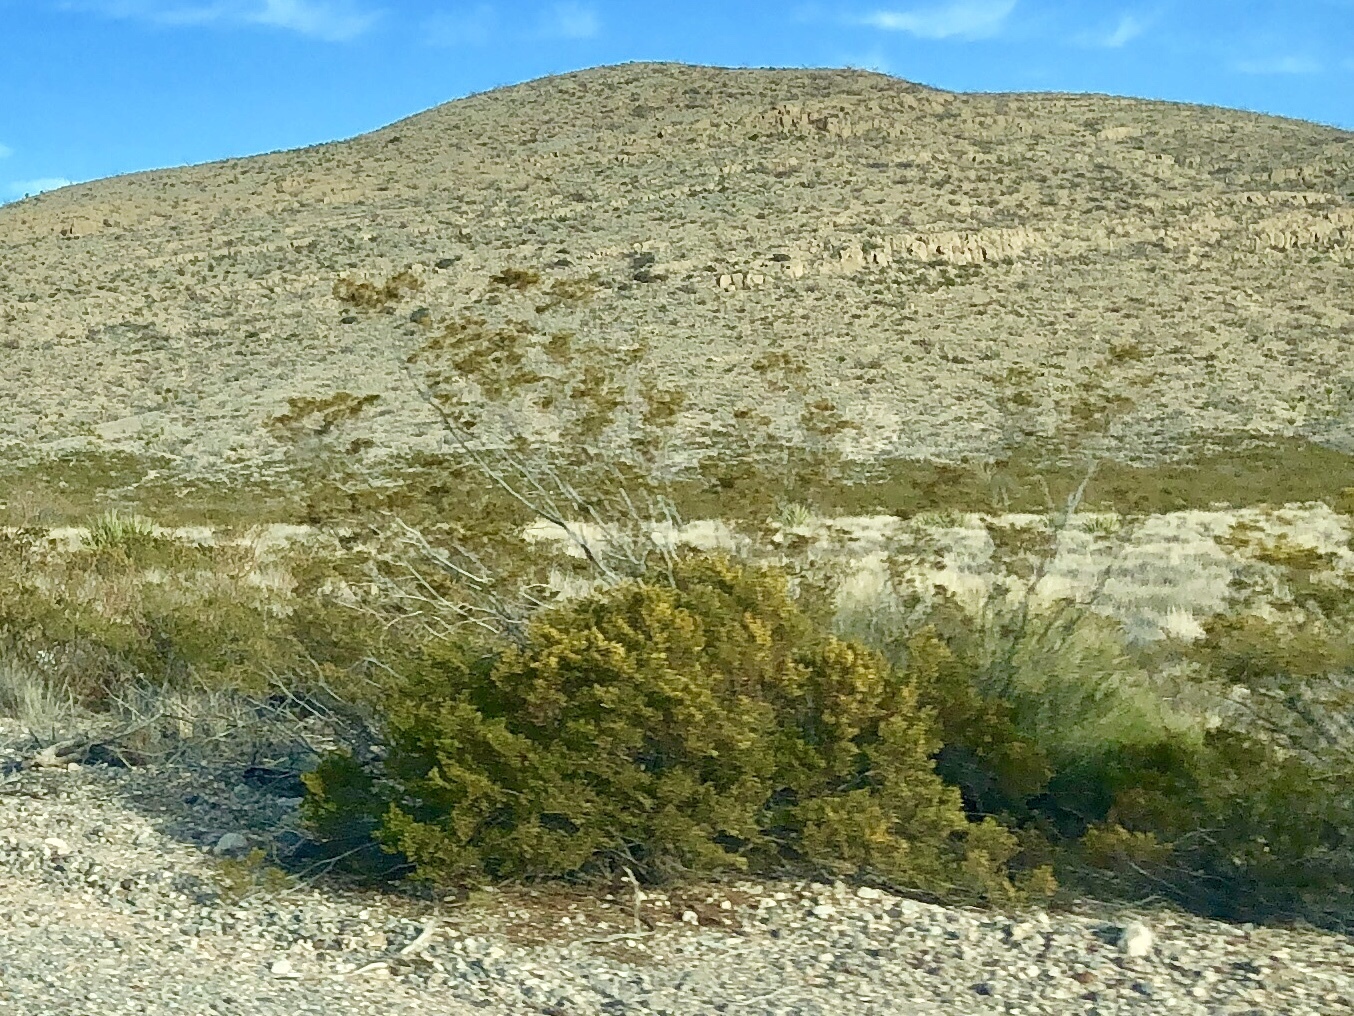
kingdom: Plantae
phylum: Tracheophyta
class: Magnoliopsida
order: Zygophyllales
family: Zygophyllaceae
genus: Larrea
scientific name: Larrea tridentata
